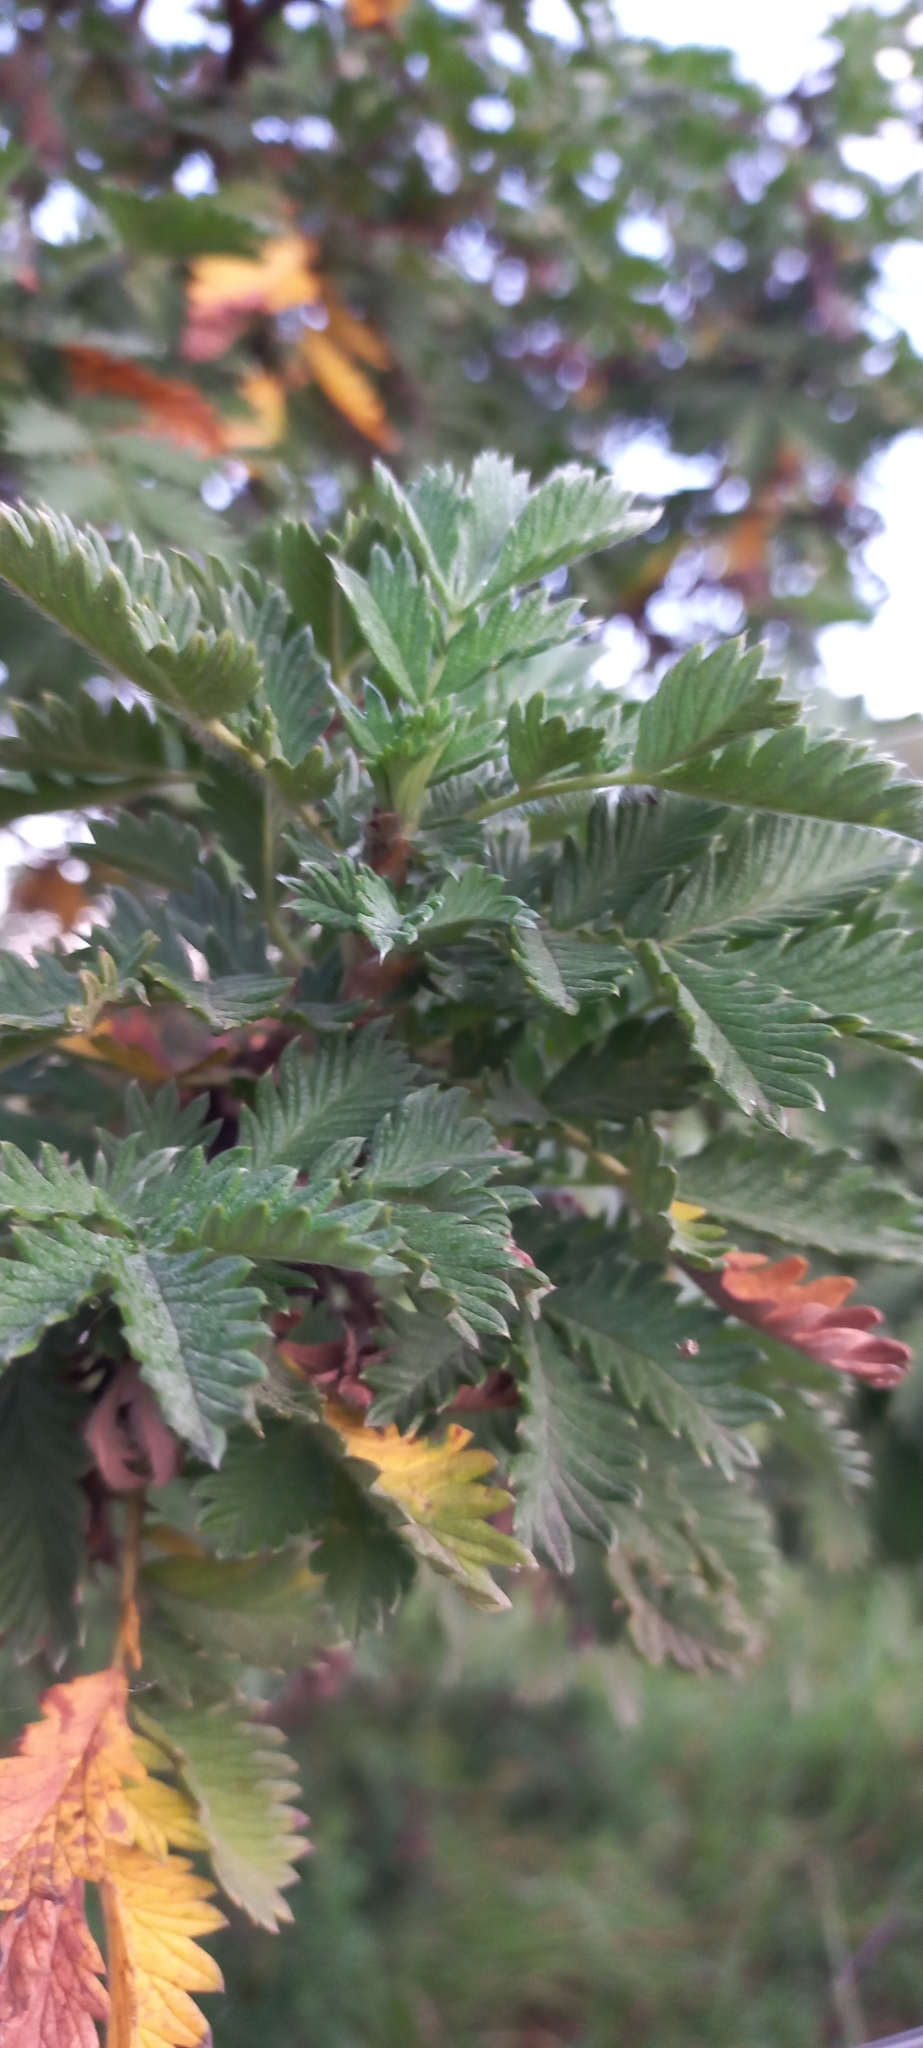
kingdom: Plantae
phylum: Tracheophyta
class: Magnoliopsida
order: Rosales
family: Rosaceae
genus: Leucosidea
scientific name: Leucosidea sericea
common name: Oldwood
